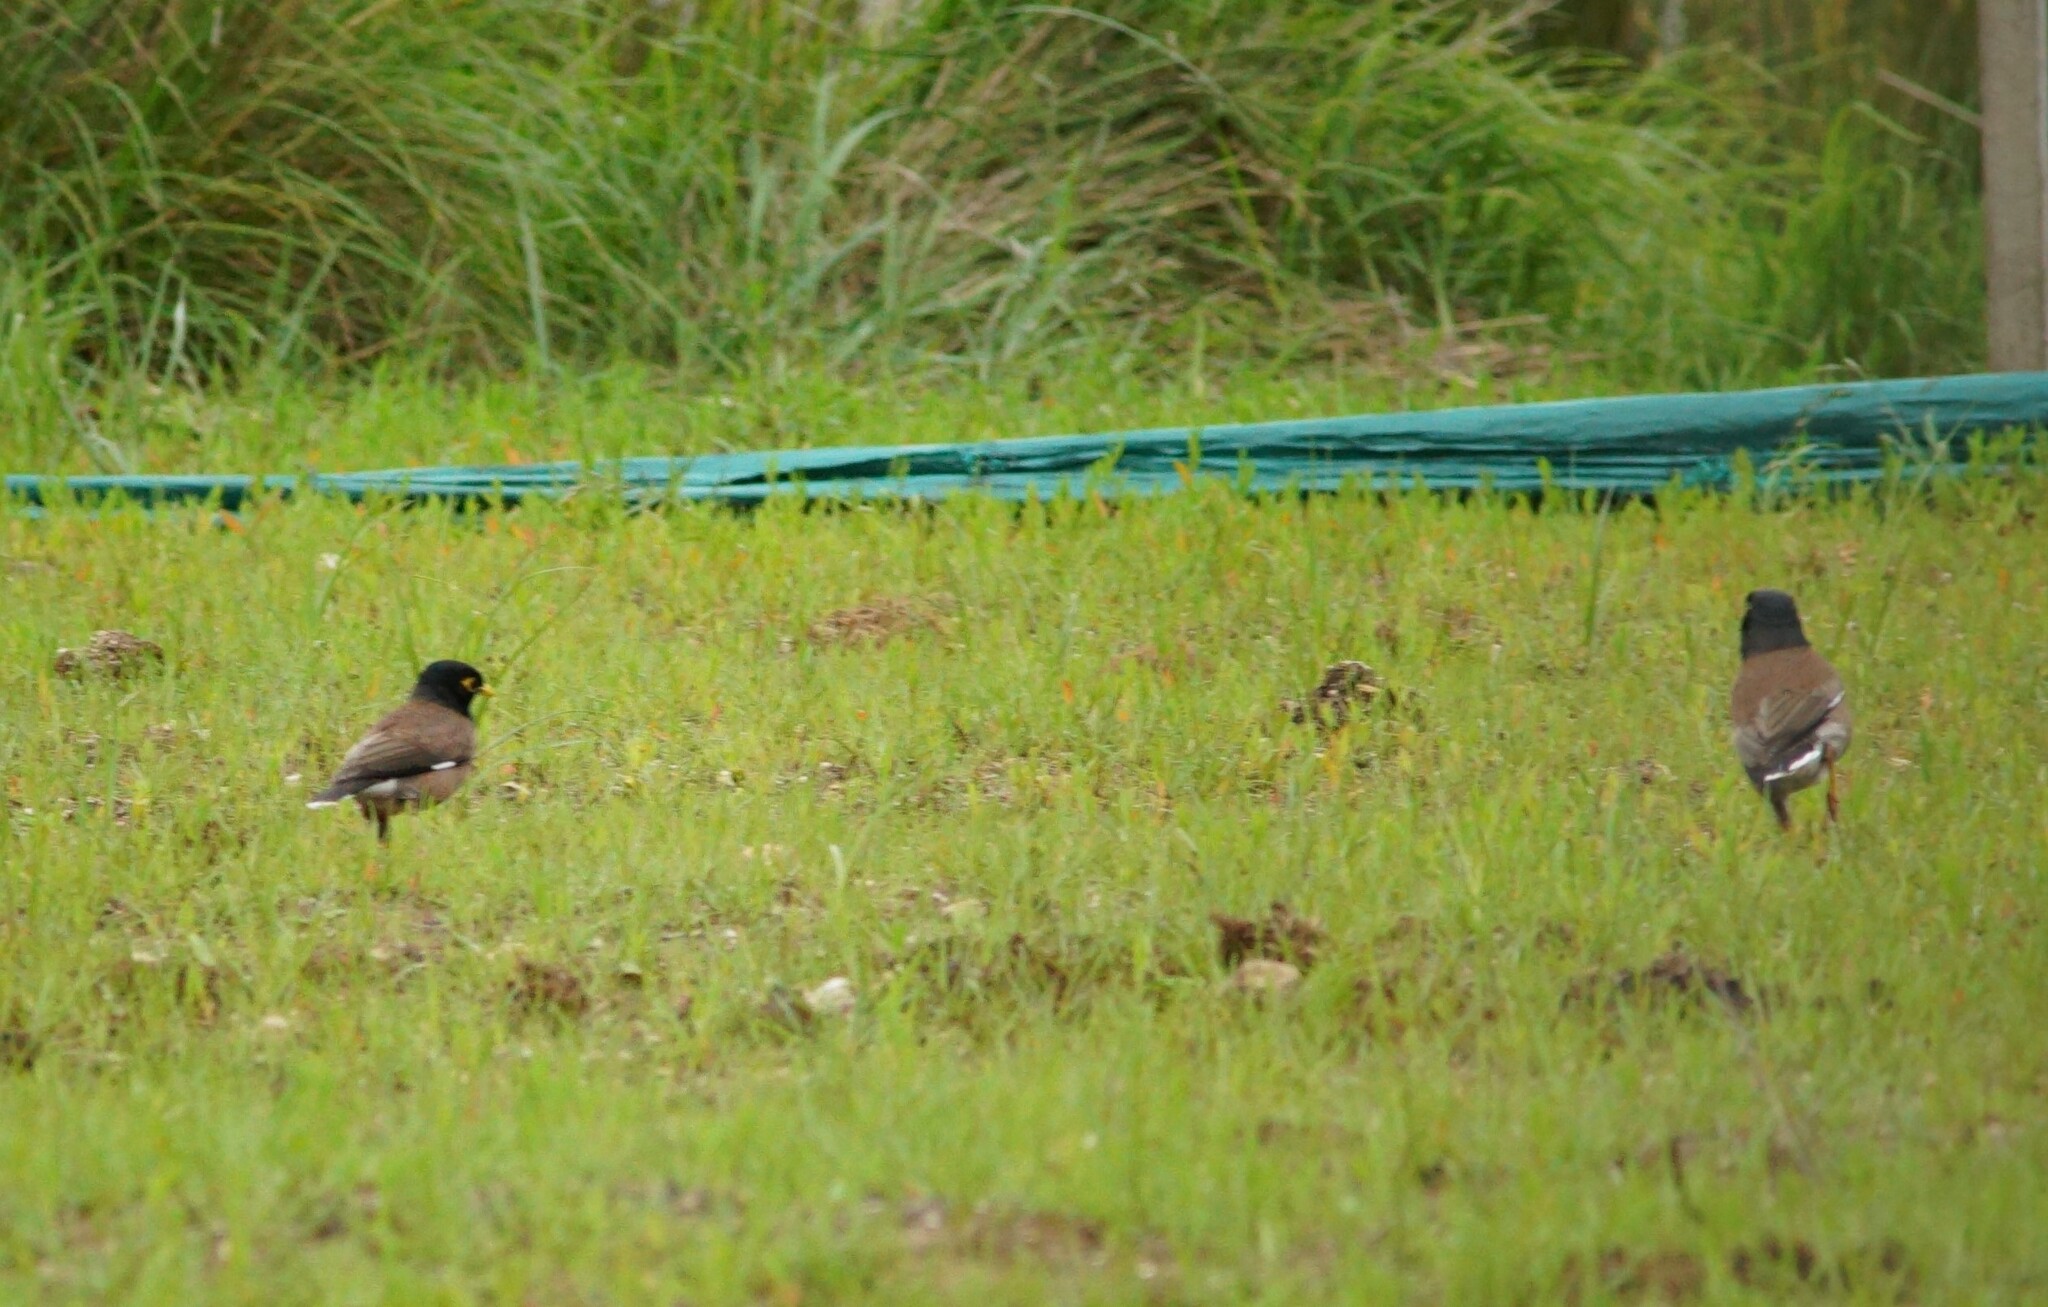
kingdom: Animalia
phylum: Chordata
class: Aves
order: Passeriformes
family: Sturnidae
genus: Acridotheres
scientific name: Acridotheres tristis
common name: Common myna
